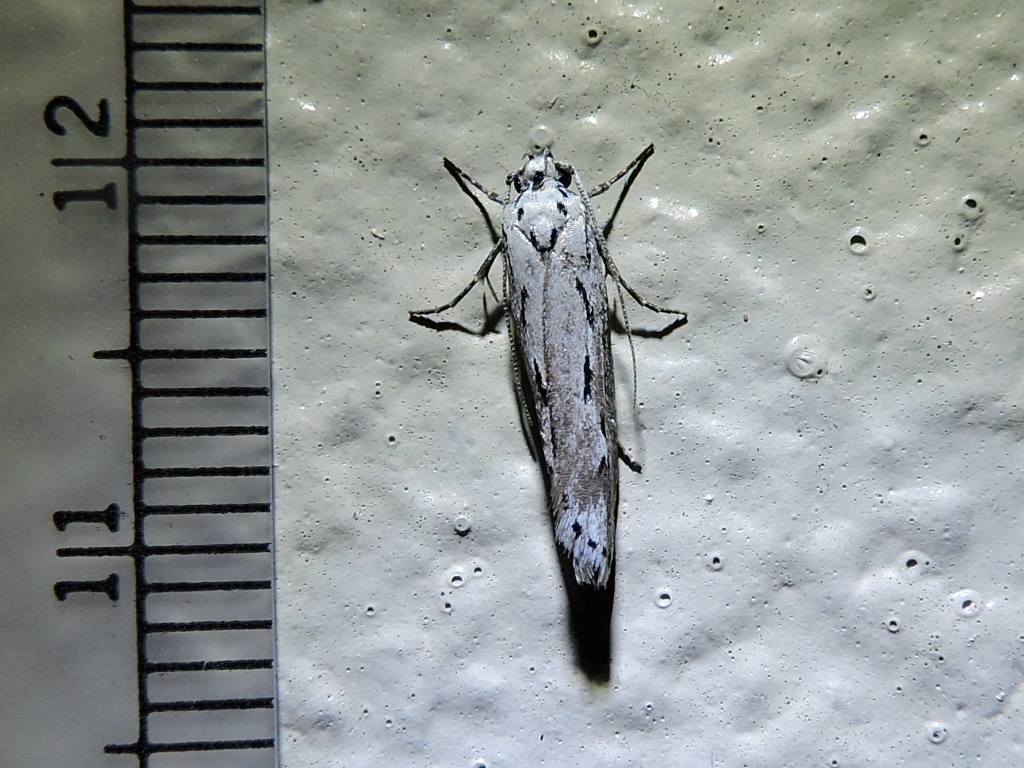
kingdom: Animalia
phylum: Arthropoda
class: Insecta
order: Lepidoptera
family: Ethmiidae
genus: Ethmia
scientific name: Ethmia discostrigella
